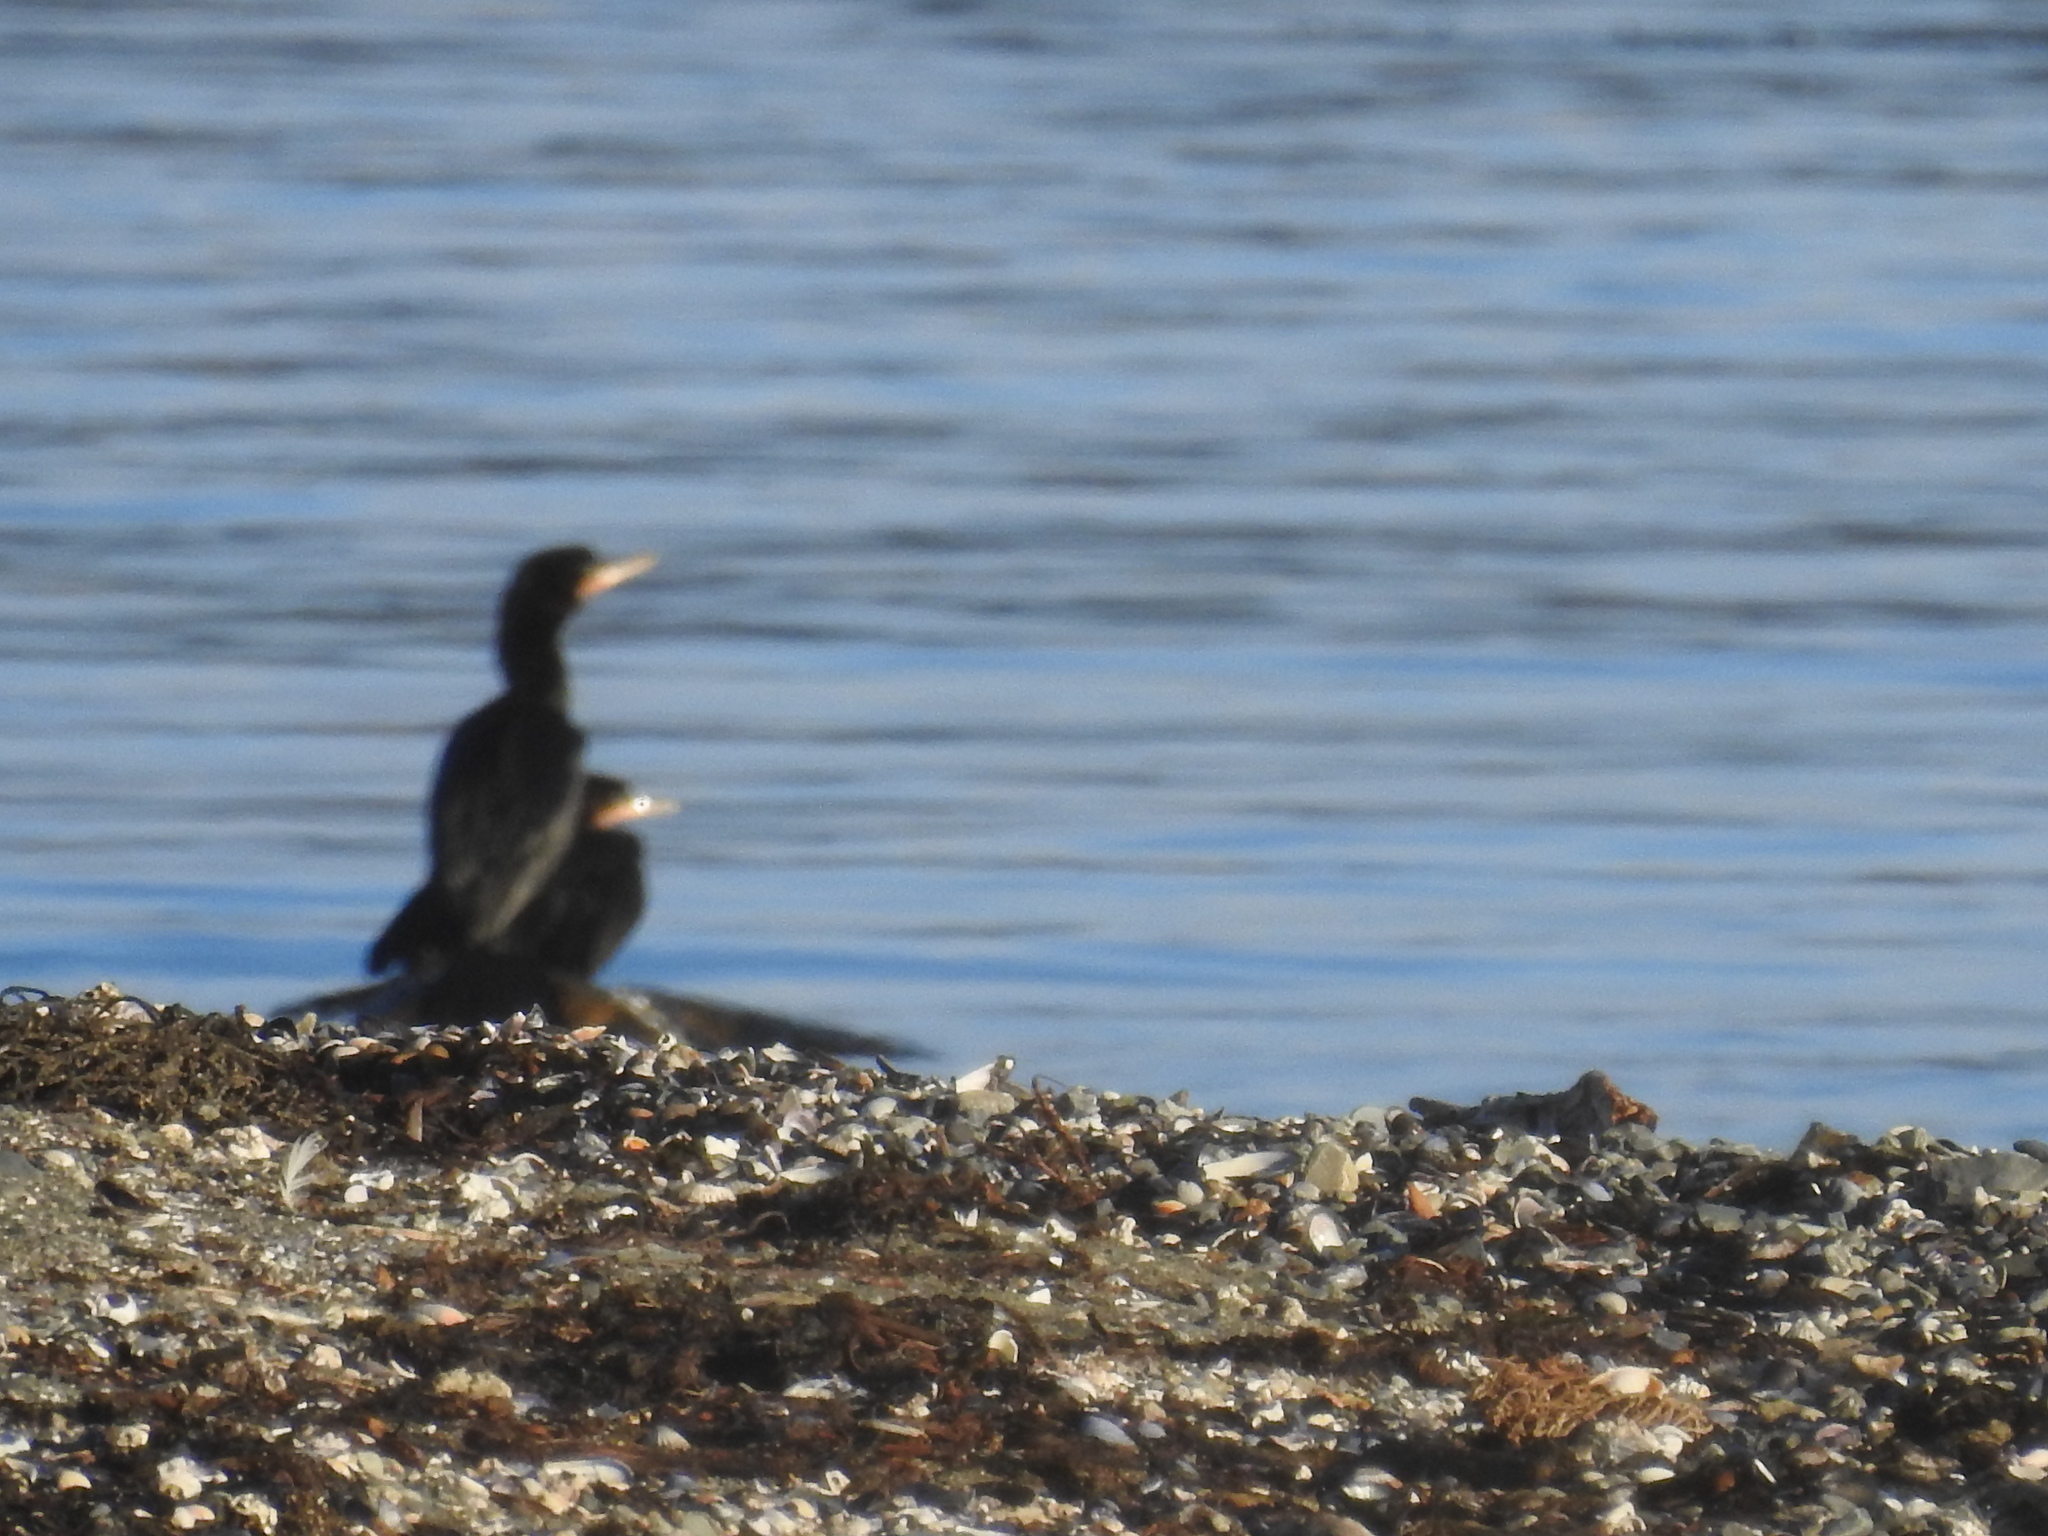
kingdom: Animalia
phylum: Chordata
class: Aves
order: Suliformes
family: Phalacrocoracidae
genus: Phalacrocorax
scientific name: Phalacrocorax brasilianus
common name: Neotropic cormorant
